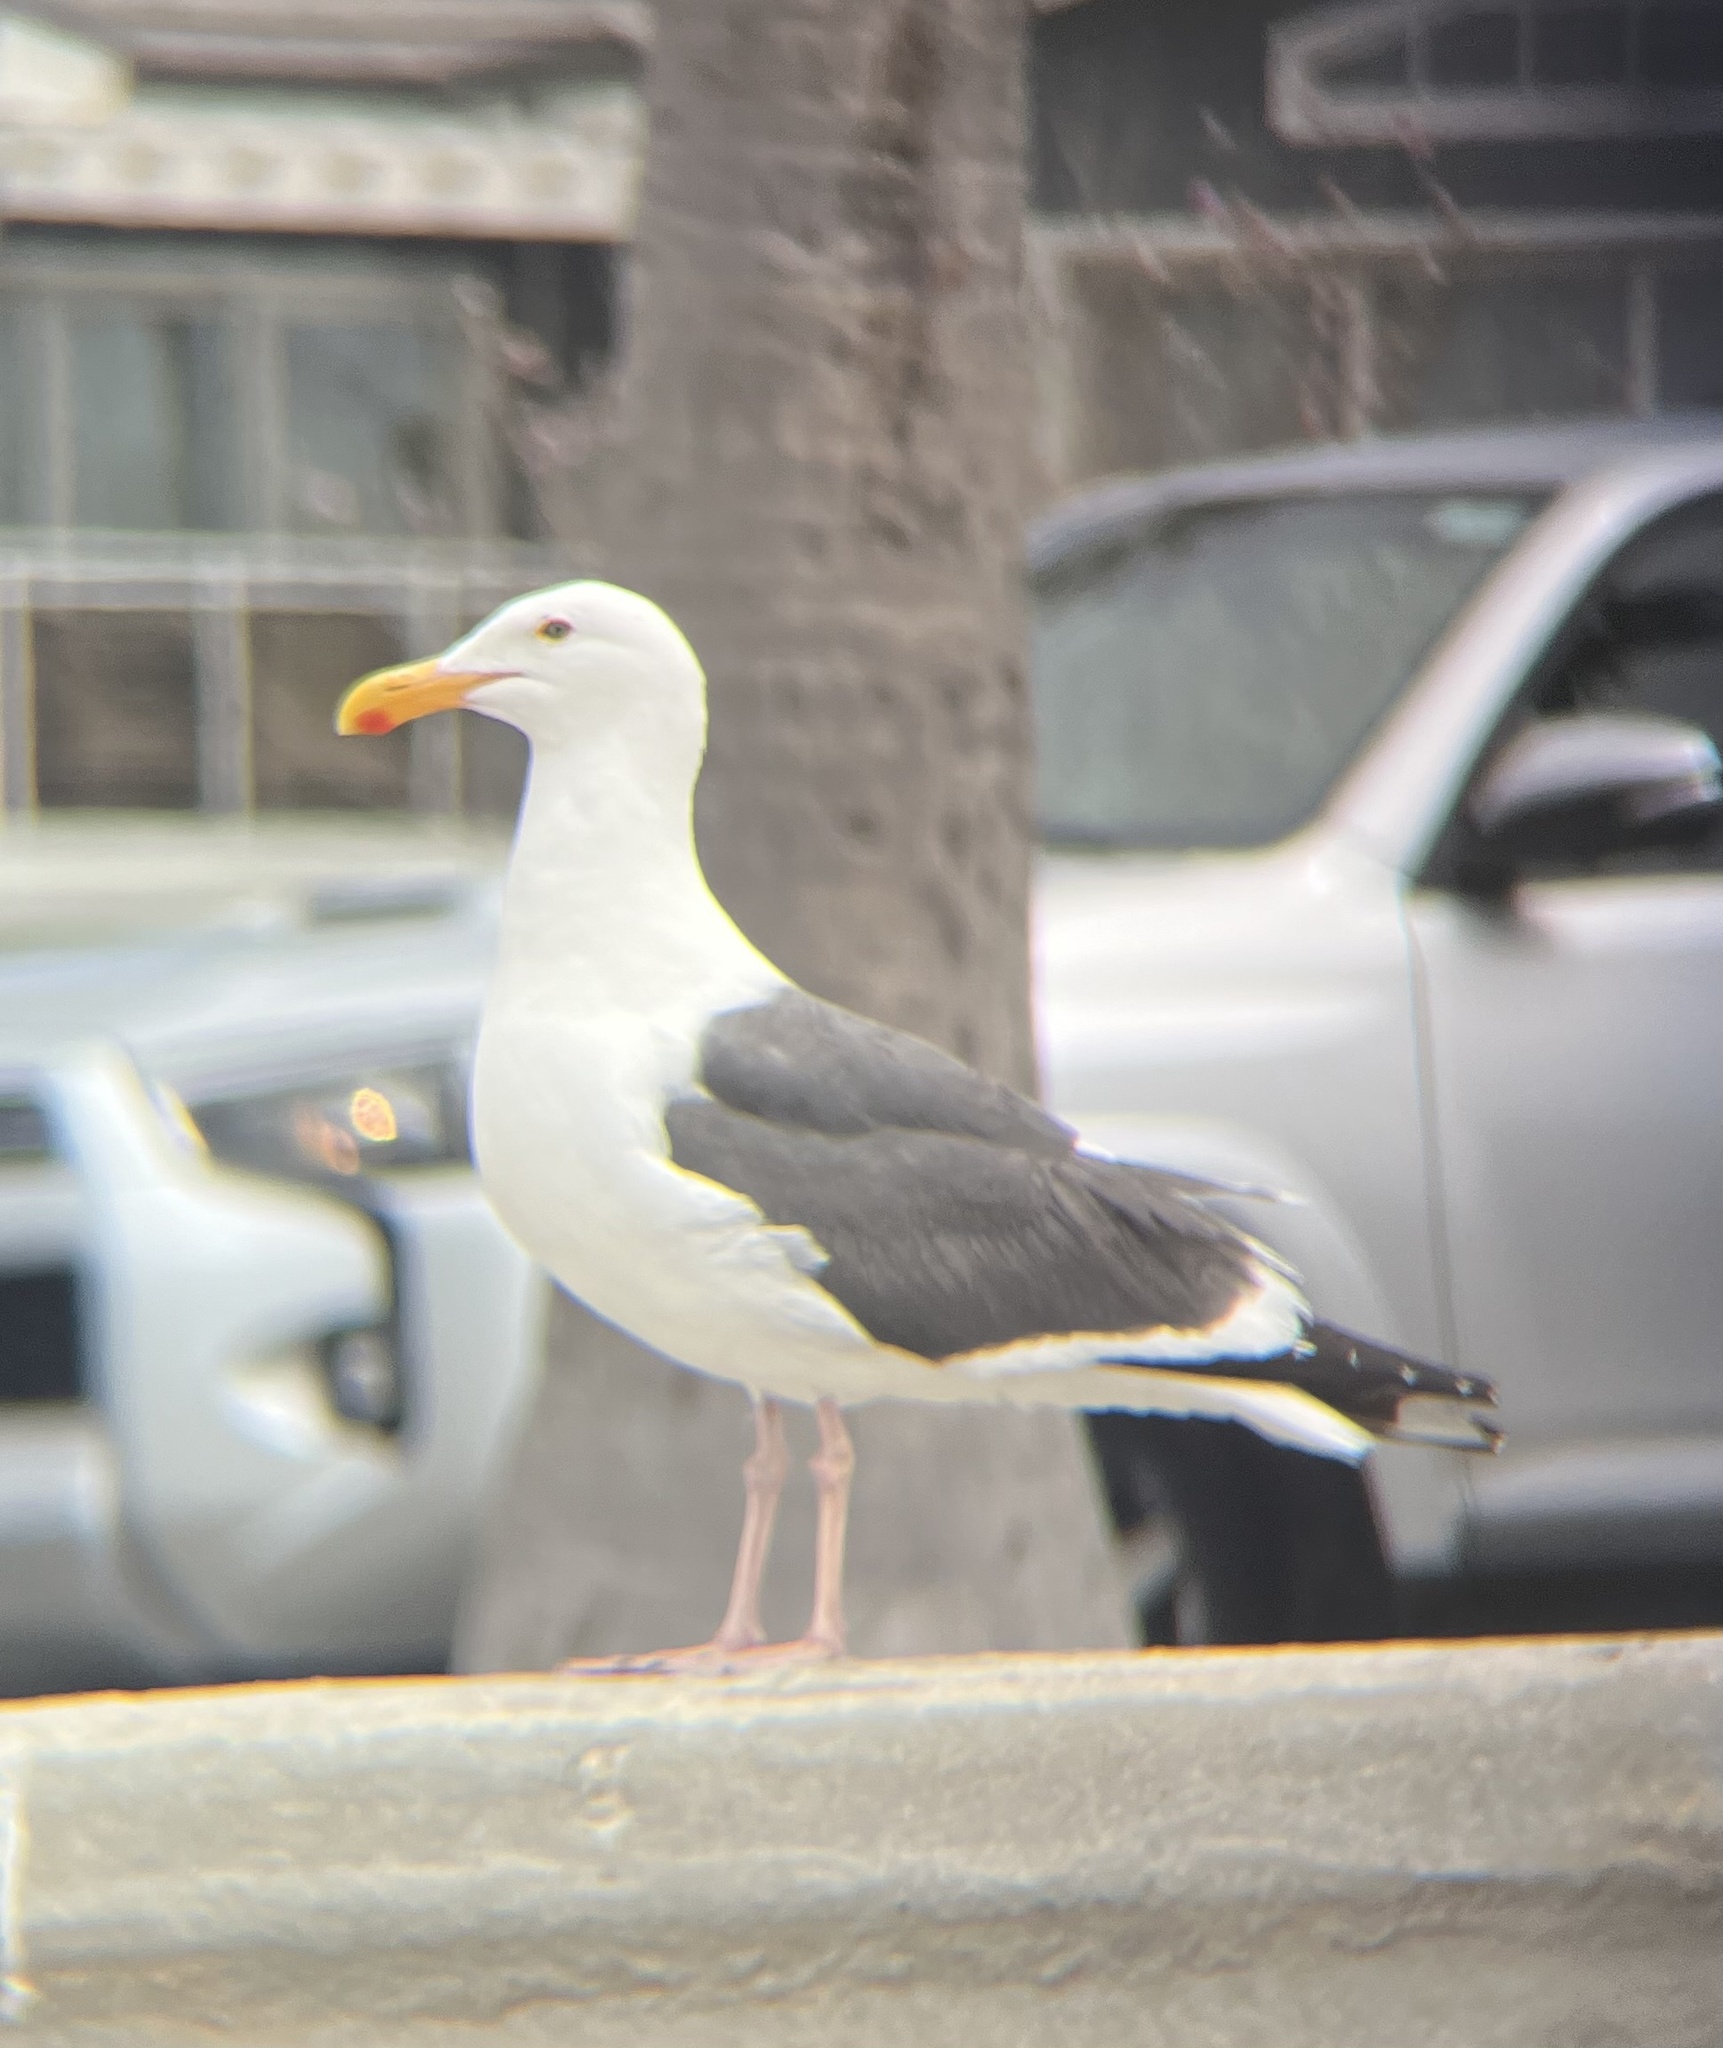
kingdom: Animalia
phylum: Chordata
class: Aves
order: Charadriiformes
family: Laridae
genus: Larus
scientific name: Larus occidentalis
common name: Western gull
